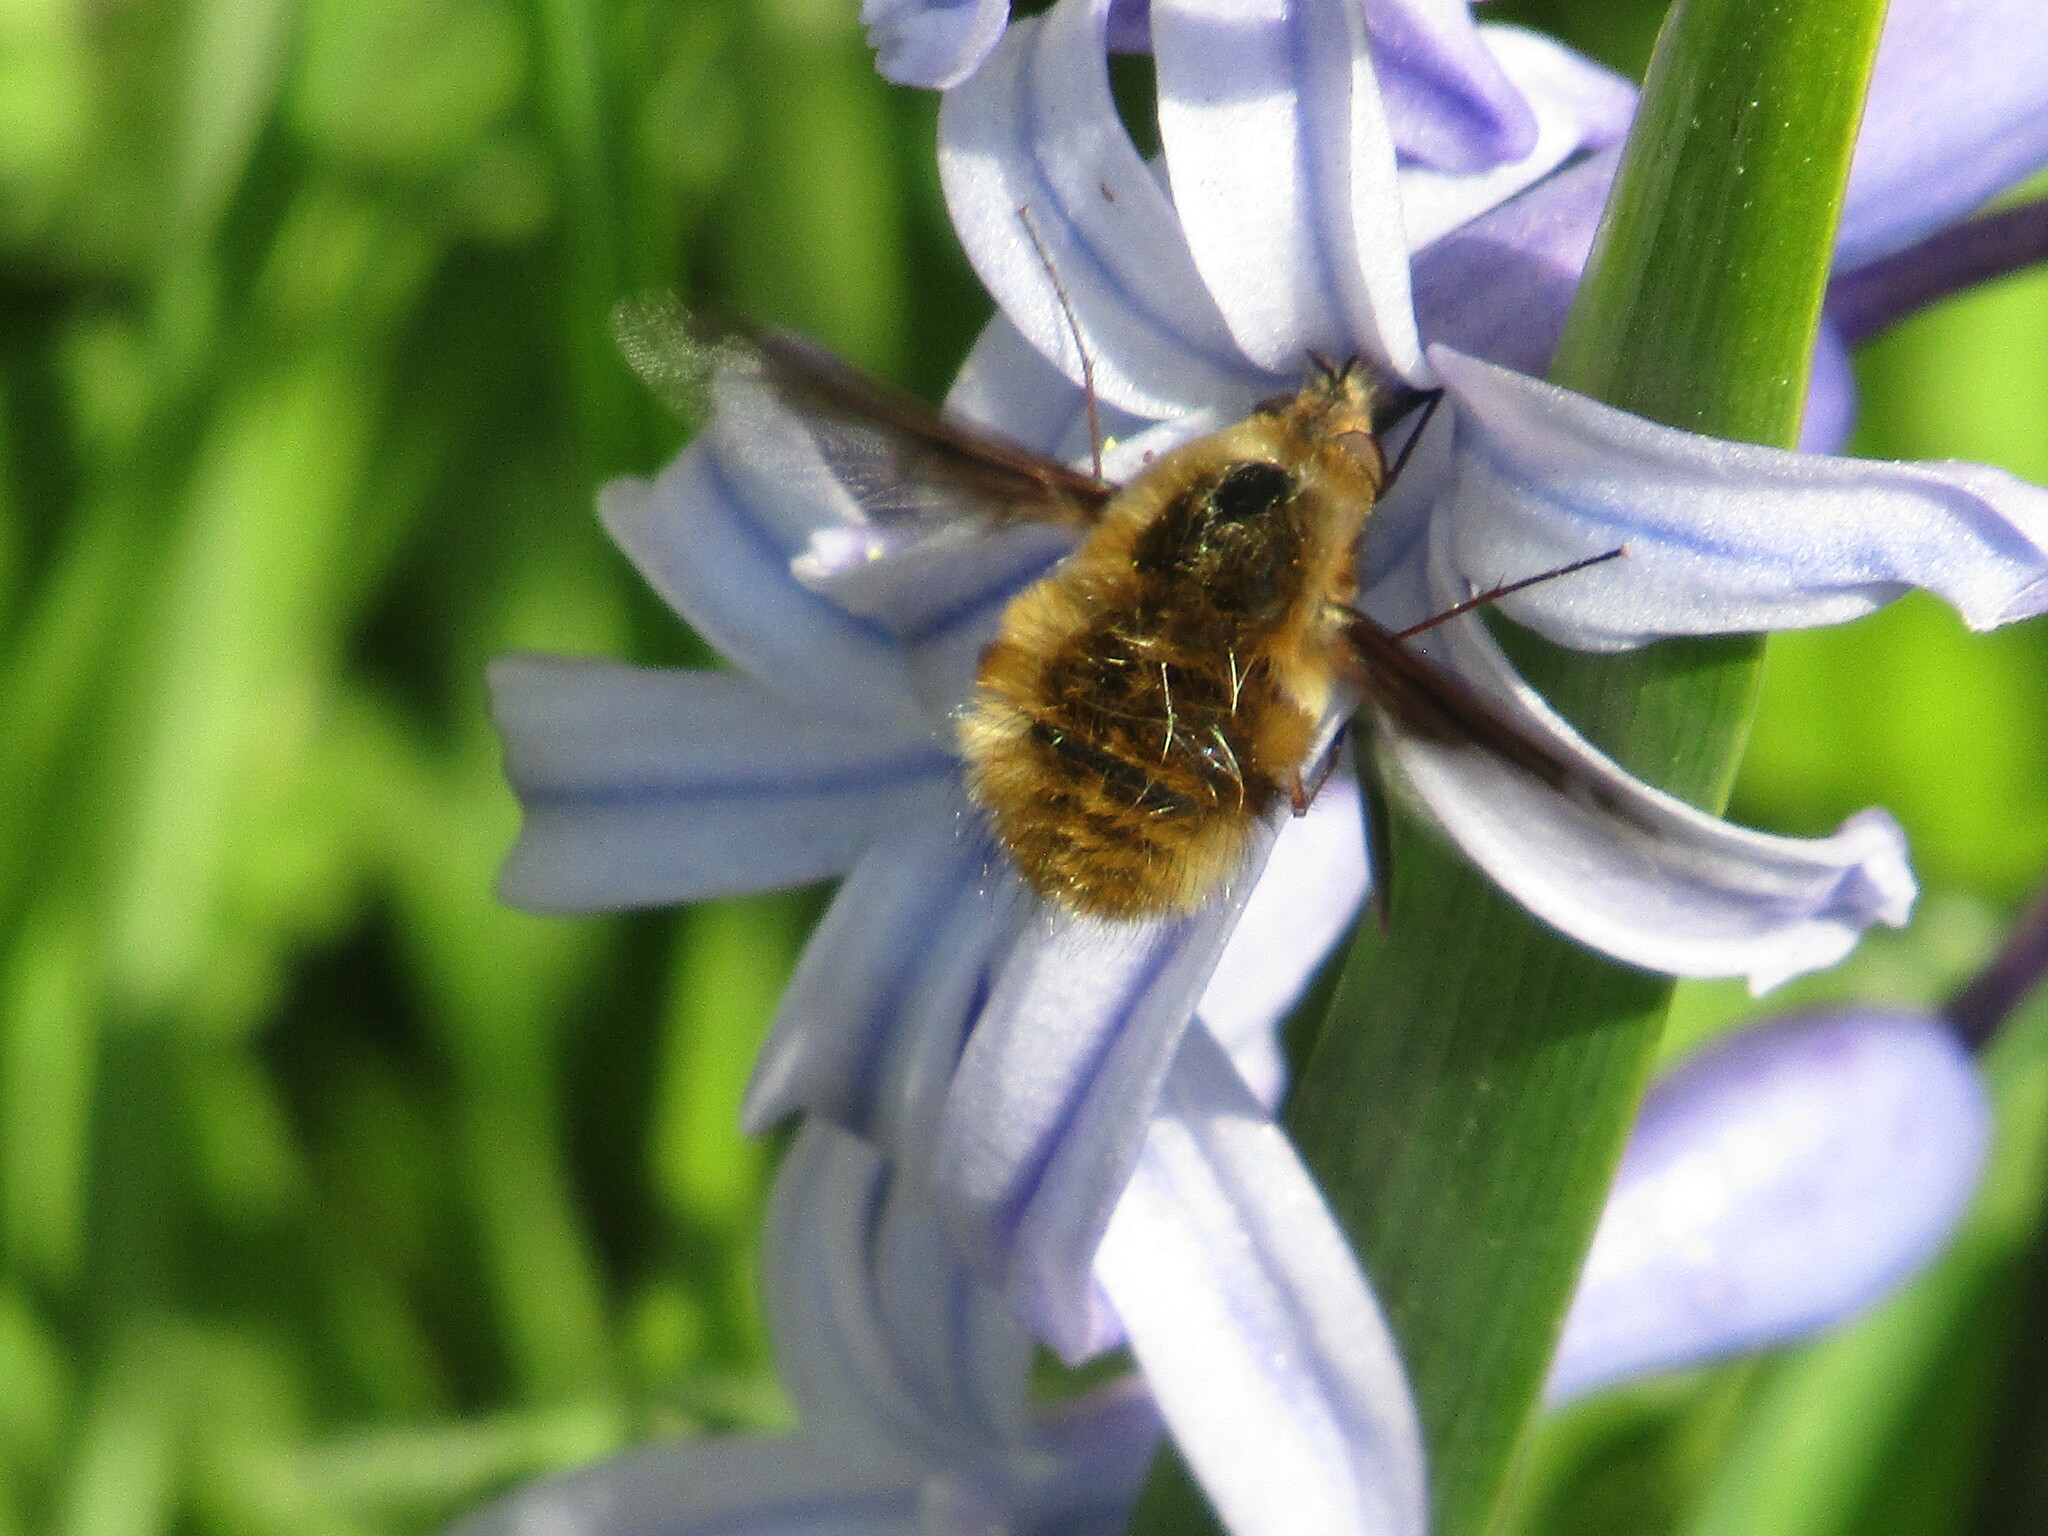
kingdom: Animalia
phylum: Arthropoda
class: Insecta
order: Diptera
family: Bombyliidae
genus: Bombylius
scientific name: Bombylius major
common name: Bee fly
